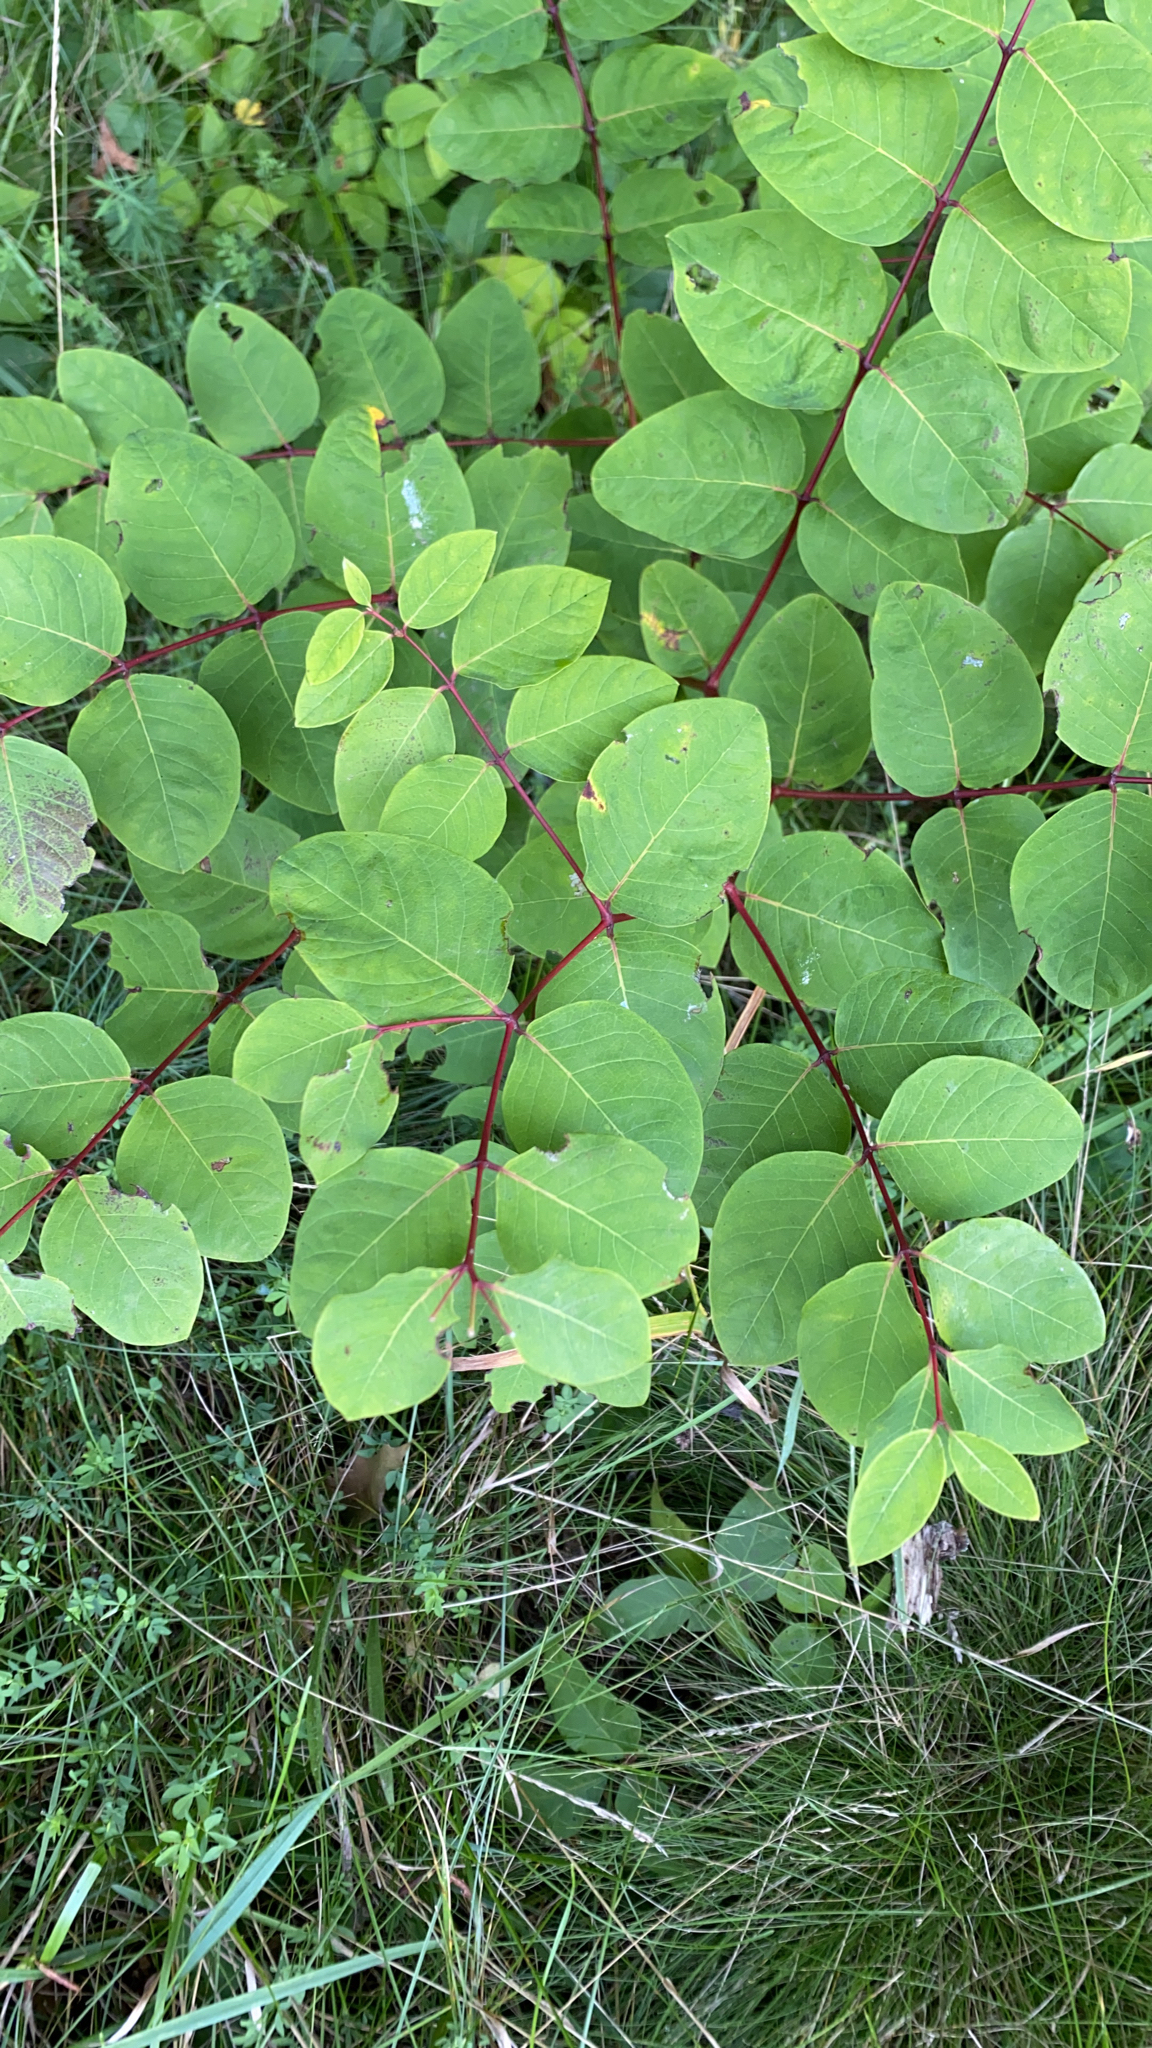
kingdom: Plantae
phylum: Tracheophyta
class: Magnoliopsida
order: Gentianales
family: Apocynaceae
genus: Apocynum
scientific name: Apocynum androsaemifolium
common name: Spreading dogbane
